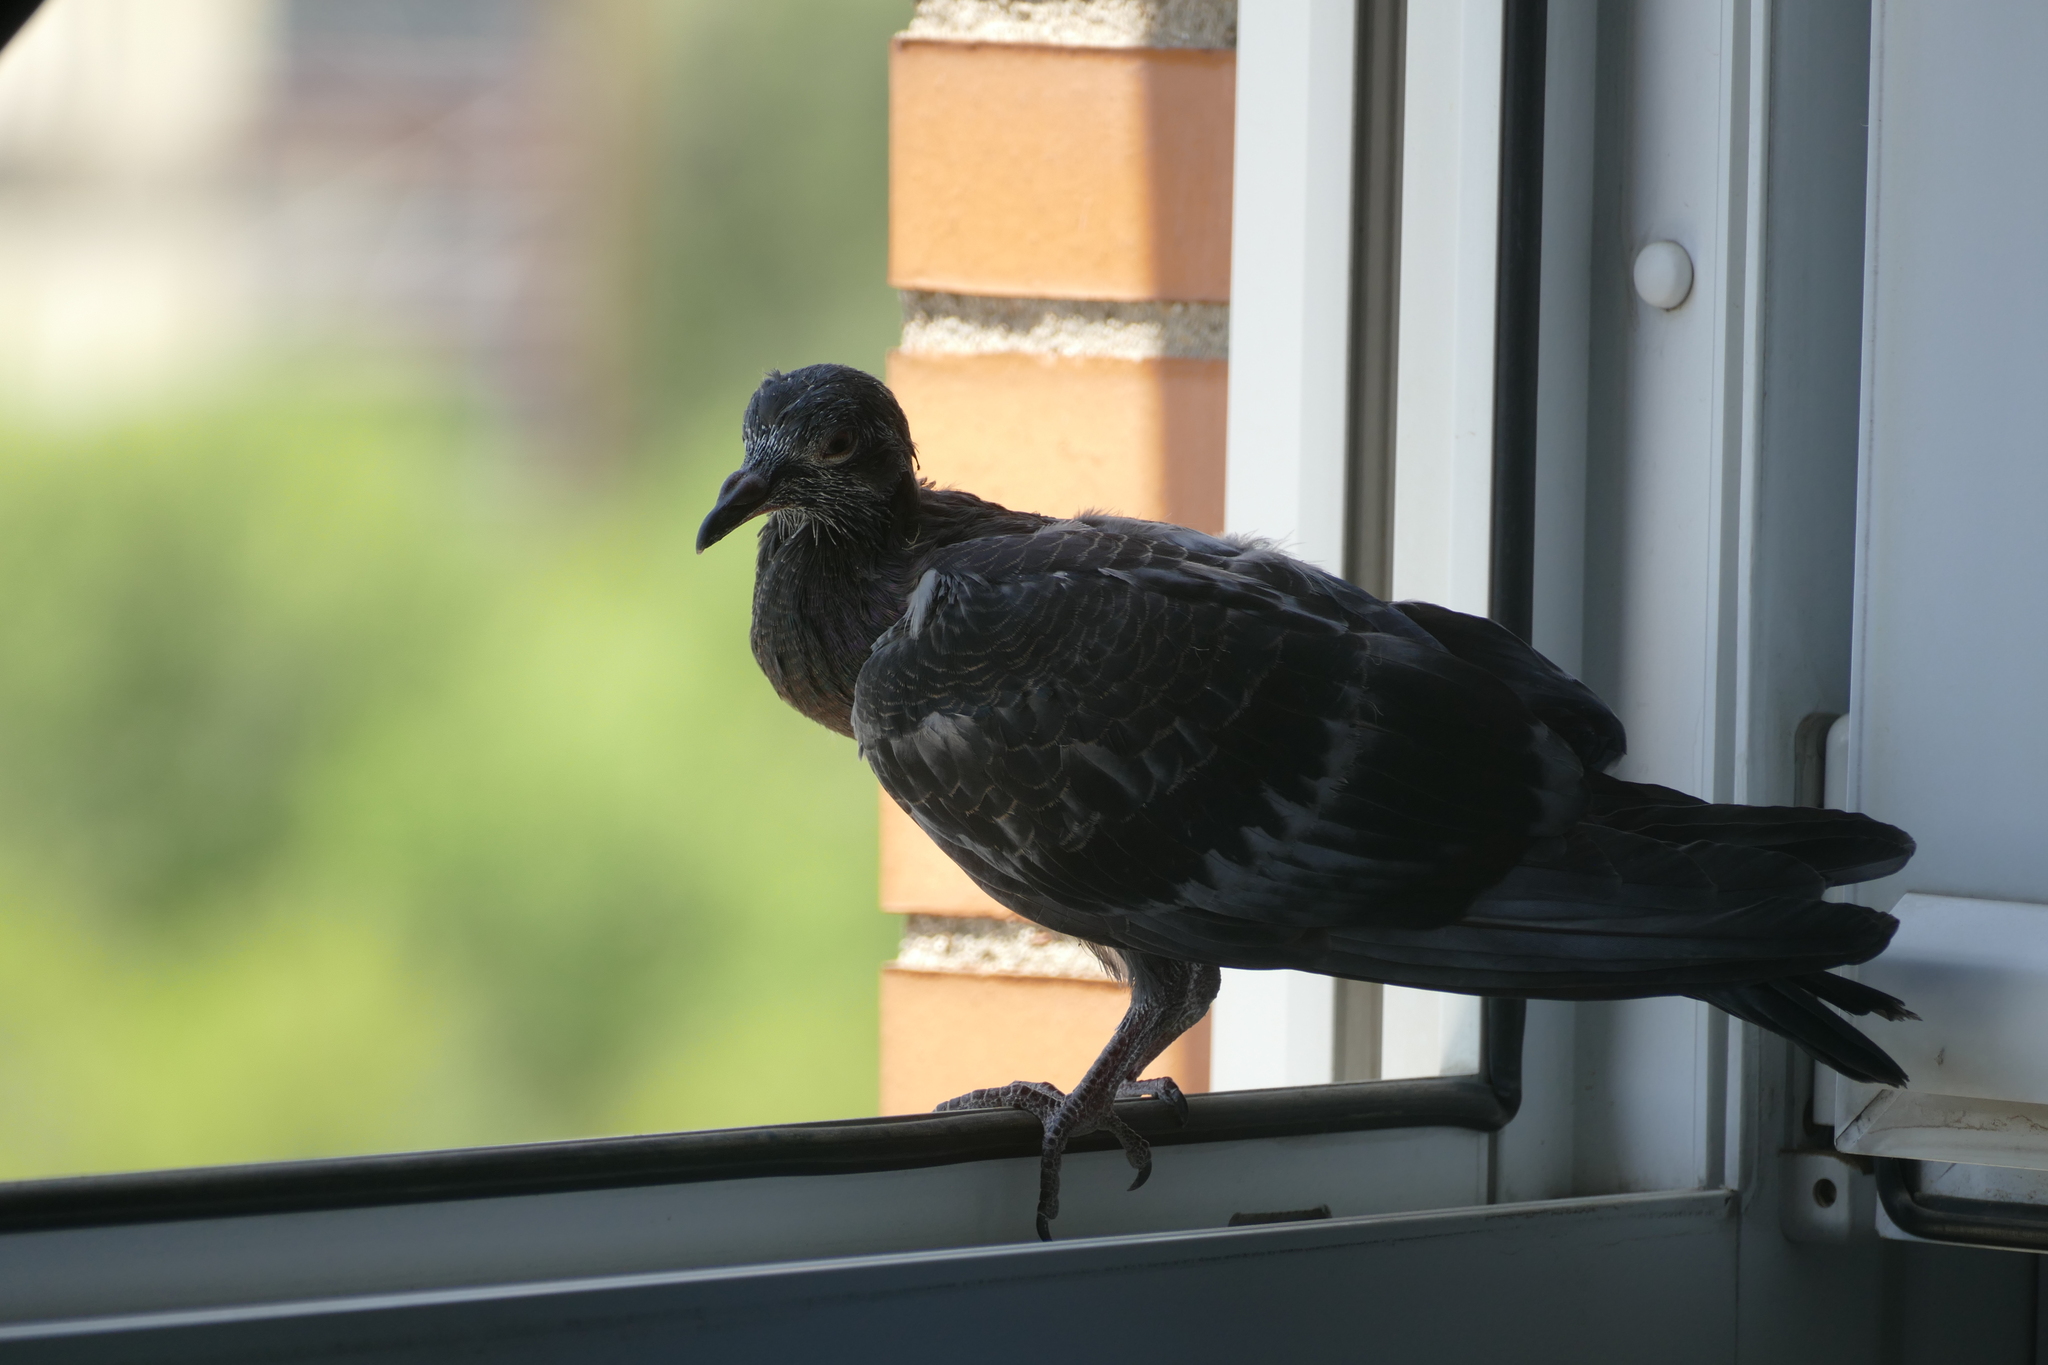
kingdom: Animalia
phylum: Chordata
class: Aves
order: Columbiformes
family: Columbidae
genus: Columba
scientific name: Columba livia
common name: Rock pigeon
